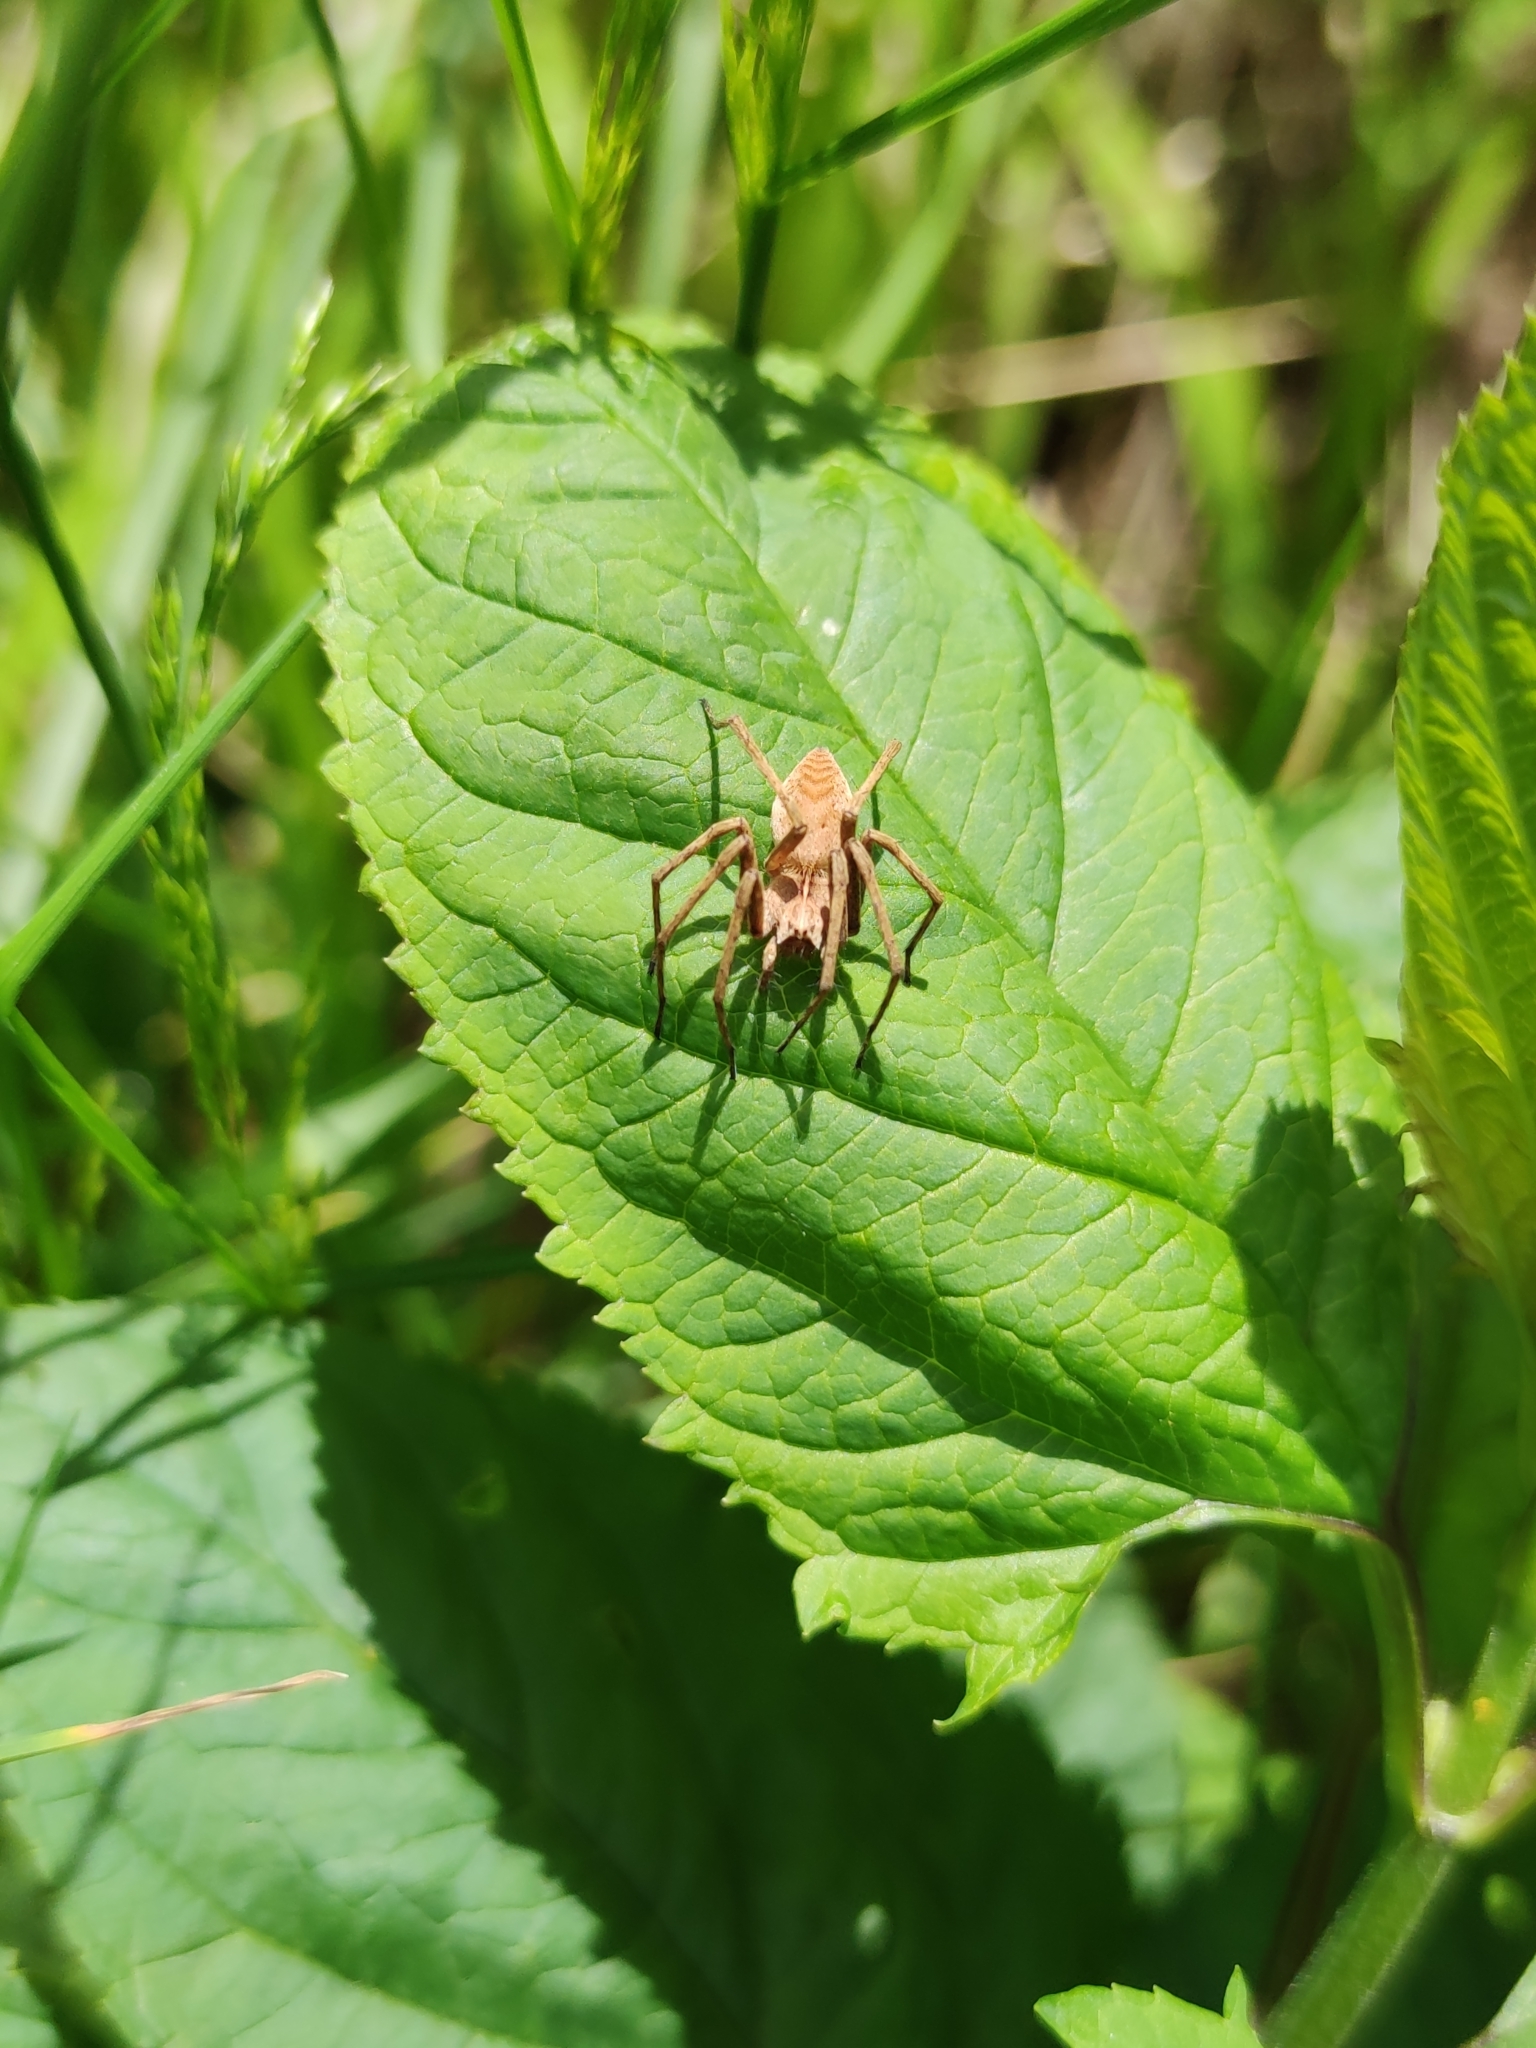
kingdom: Animalia
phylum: Arthropoda
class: Arachnida
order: Araneae
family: Pisauridae
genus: Pisaura
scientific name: Pisaura mirabilis
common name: Tent spider
